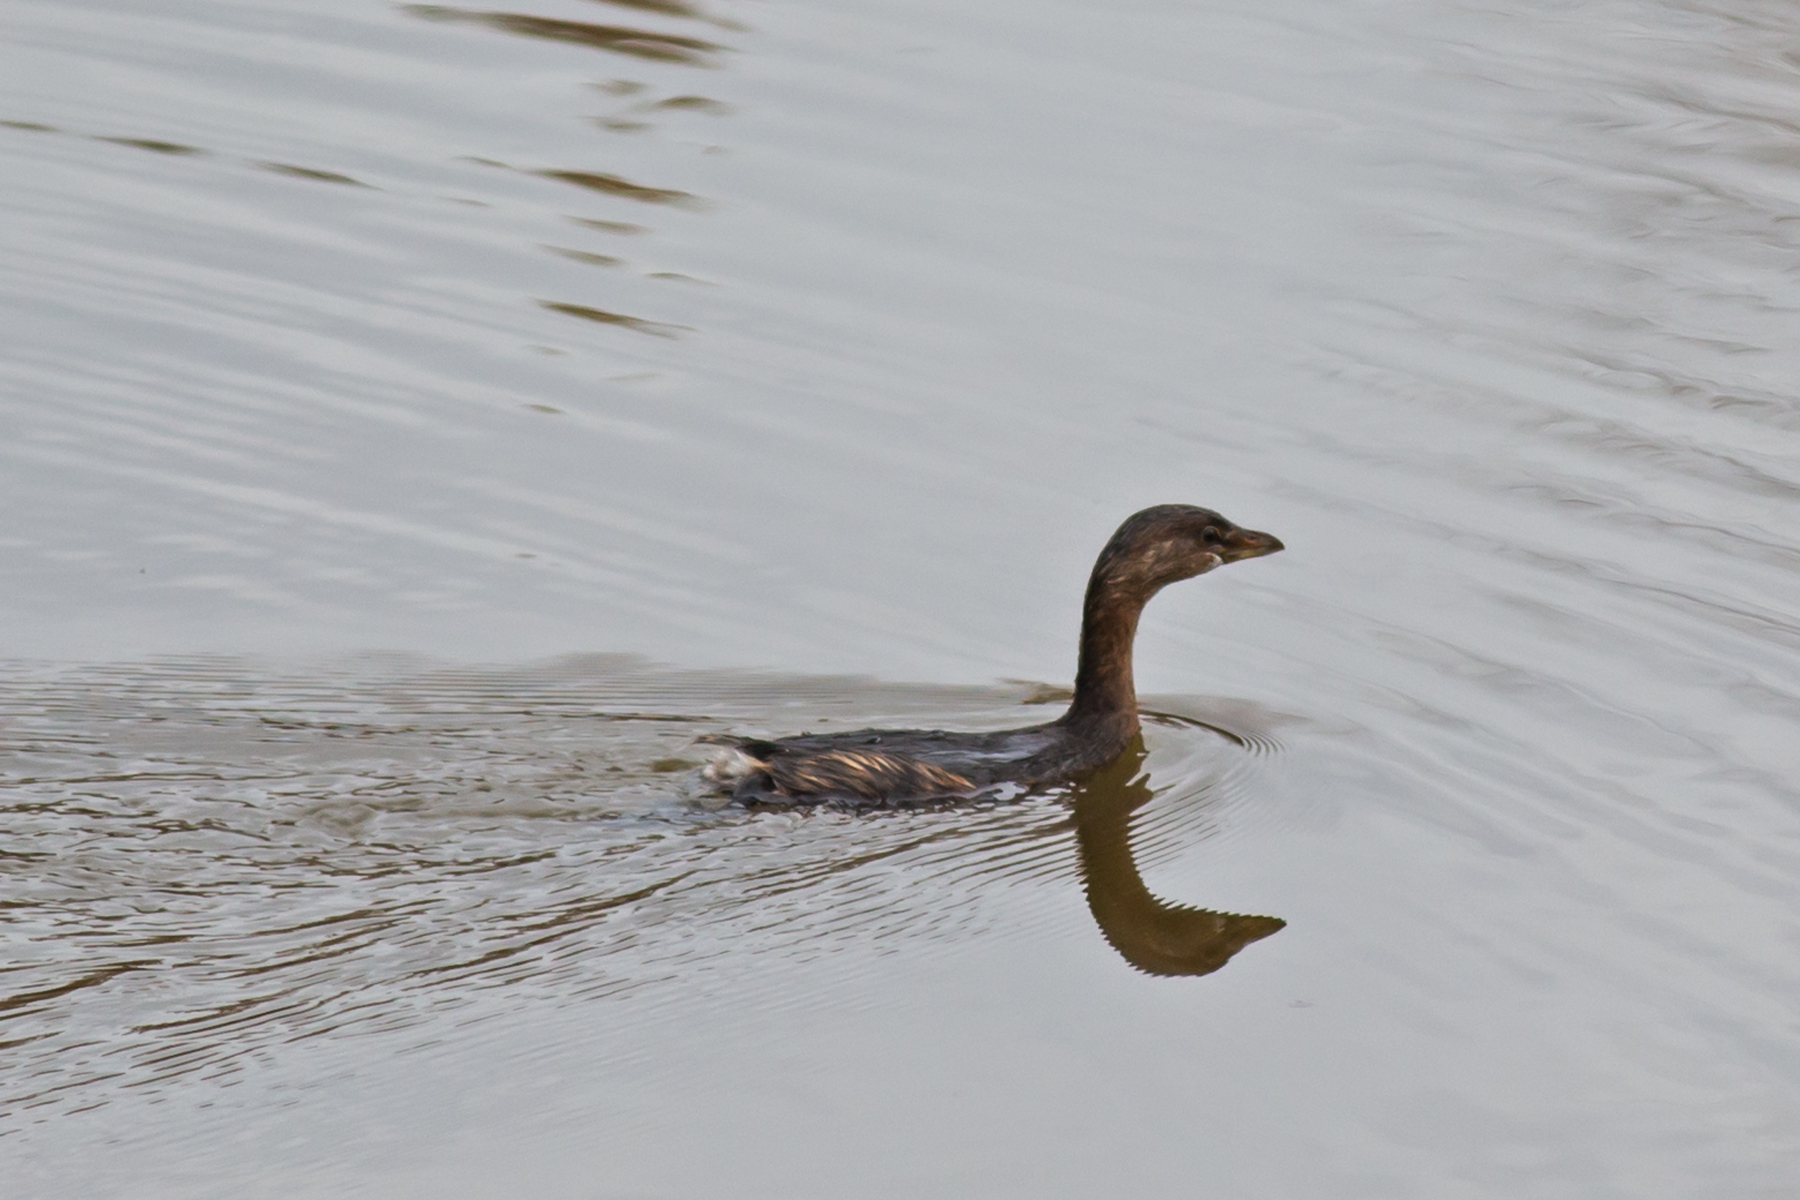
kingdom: Animalia
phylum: Chordata
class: Aves
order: Podicipediformes
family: Podicipedidae
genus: Podilymbus
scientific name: Podilymbus podiceps
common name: Pied-billed grebe
